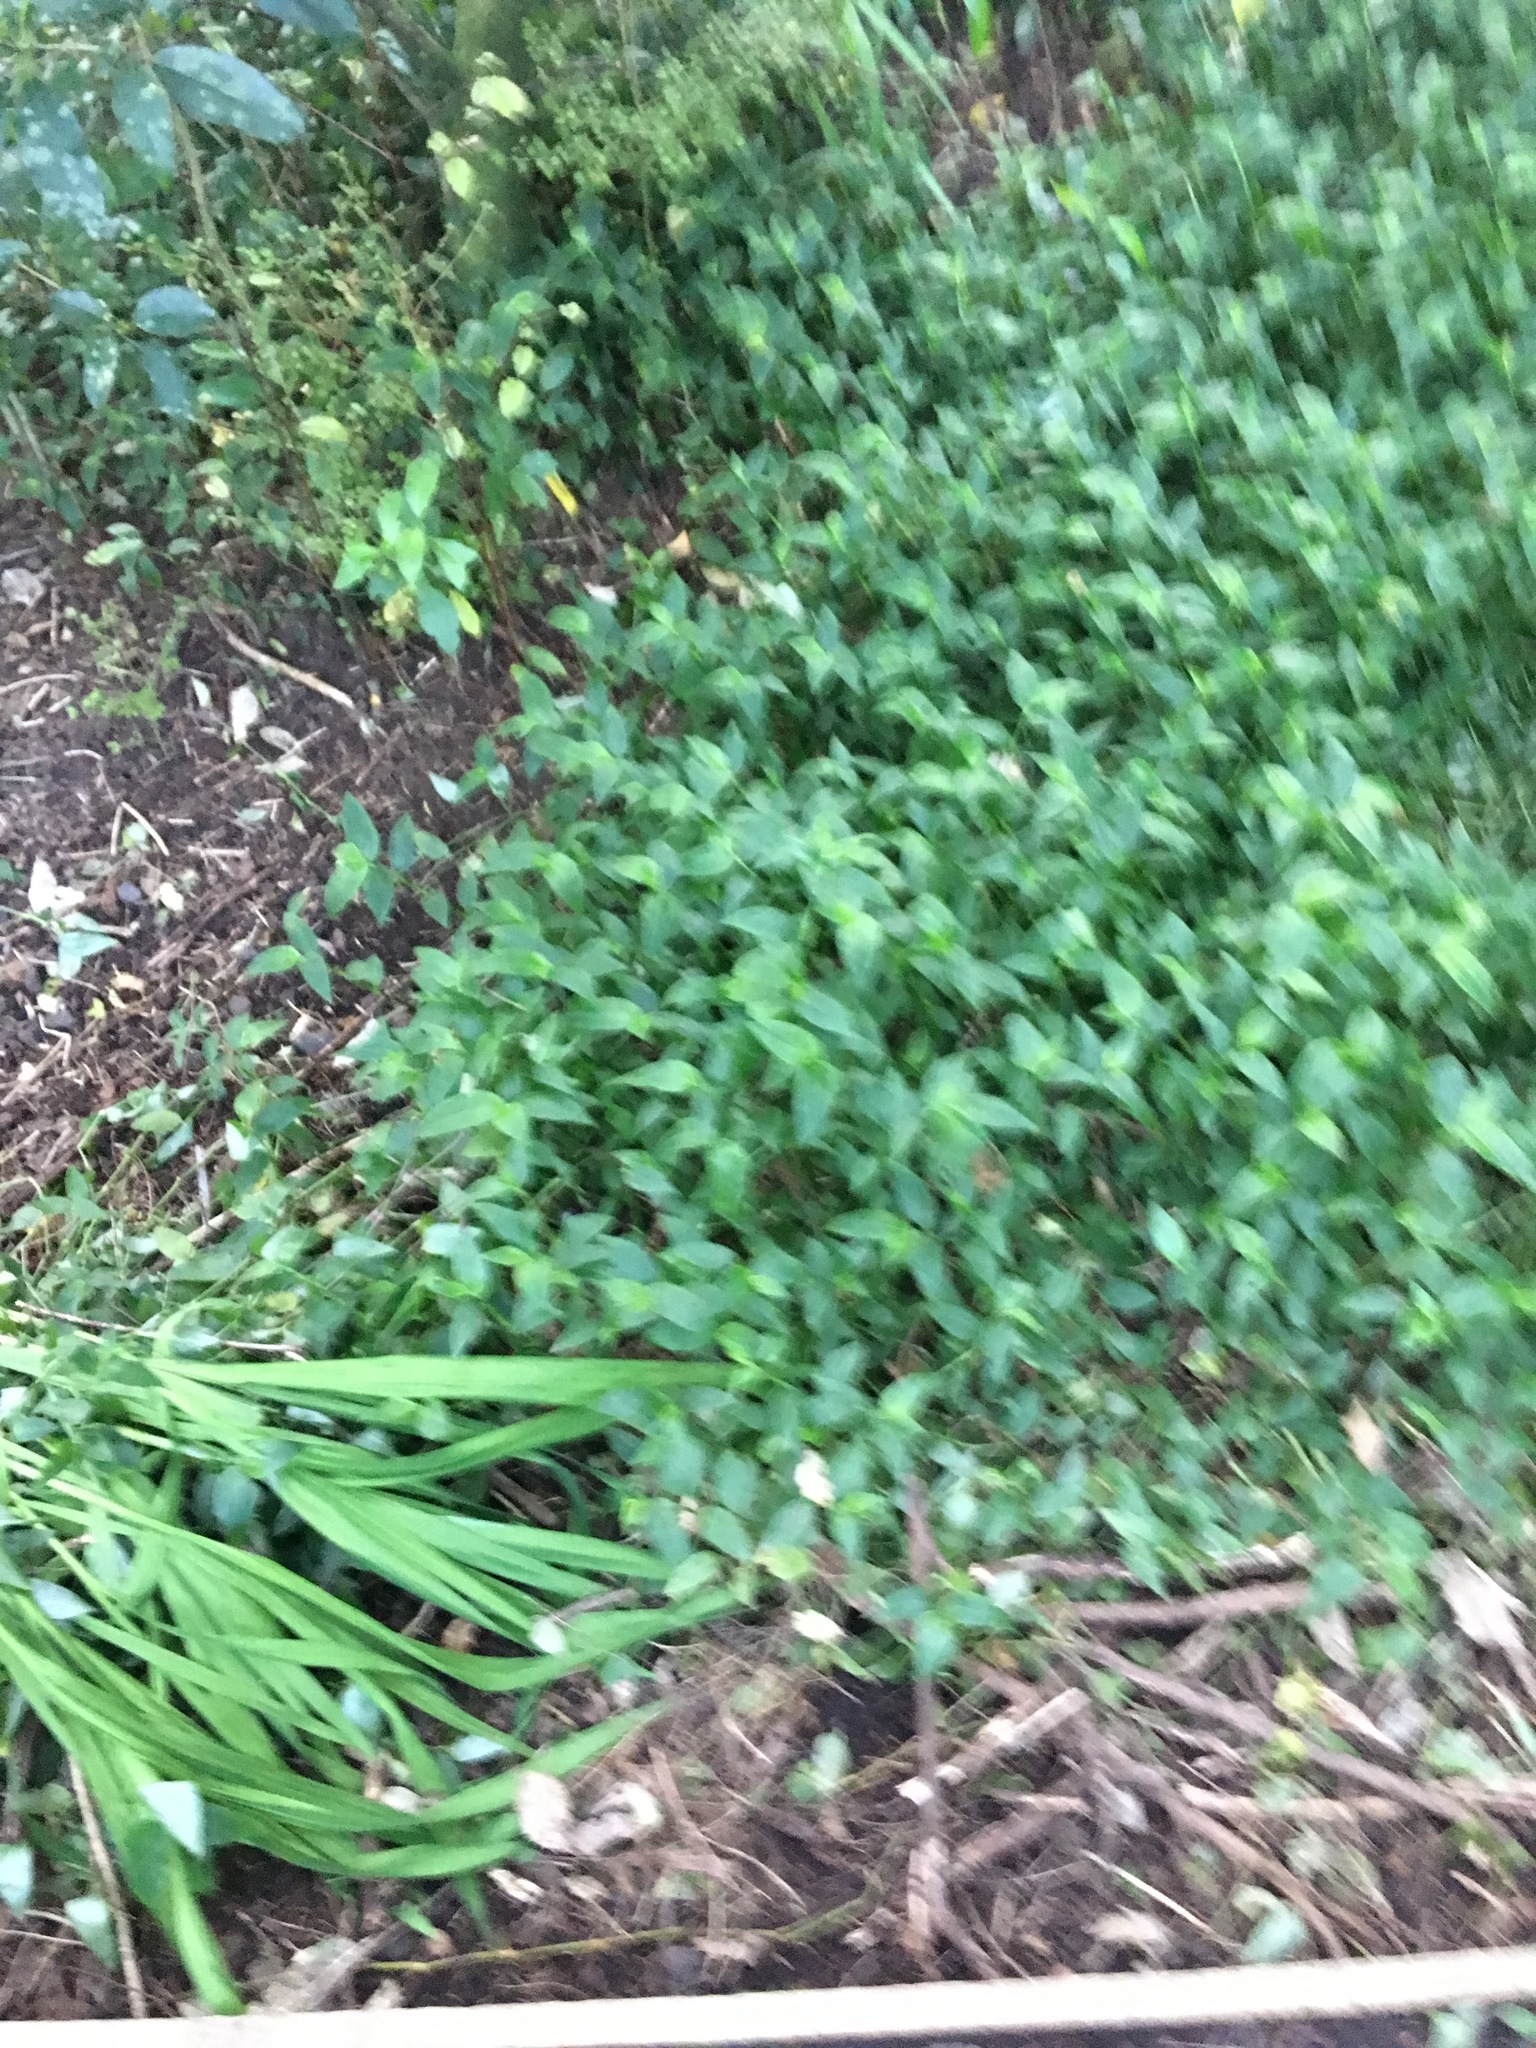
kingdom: Plantae
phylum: Tracheophyta
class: Liliopsida
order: Commelinales
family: Commelinaceae
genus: Tradescantia
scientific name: Tradescantia fluminensis
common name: Wandering-jew
